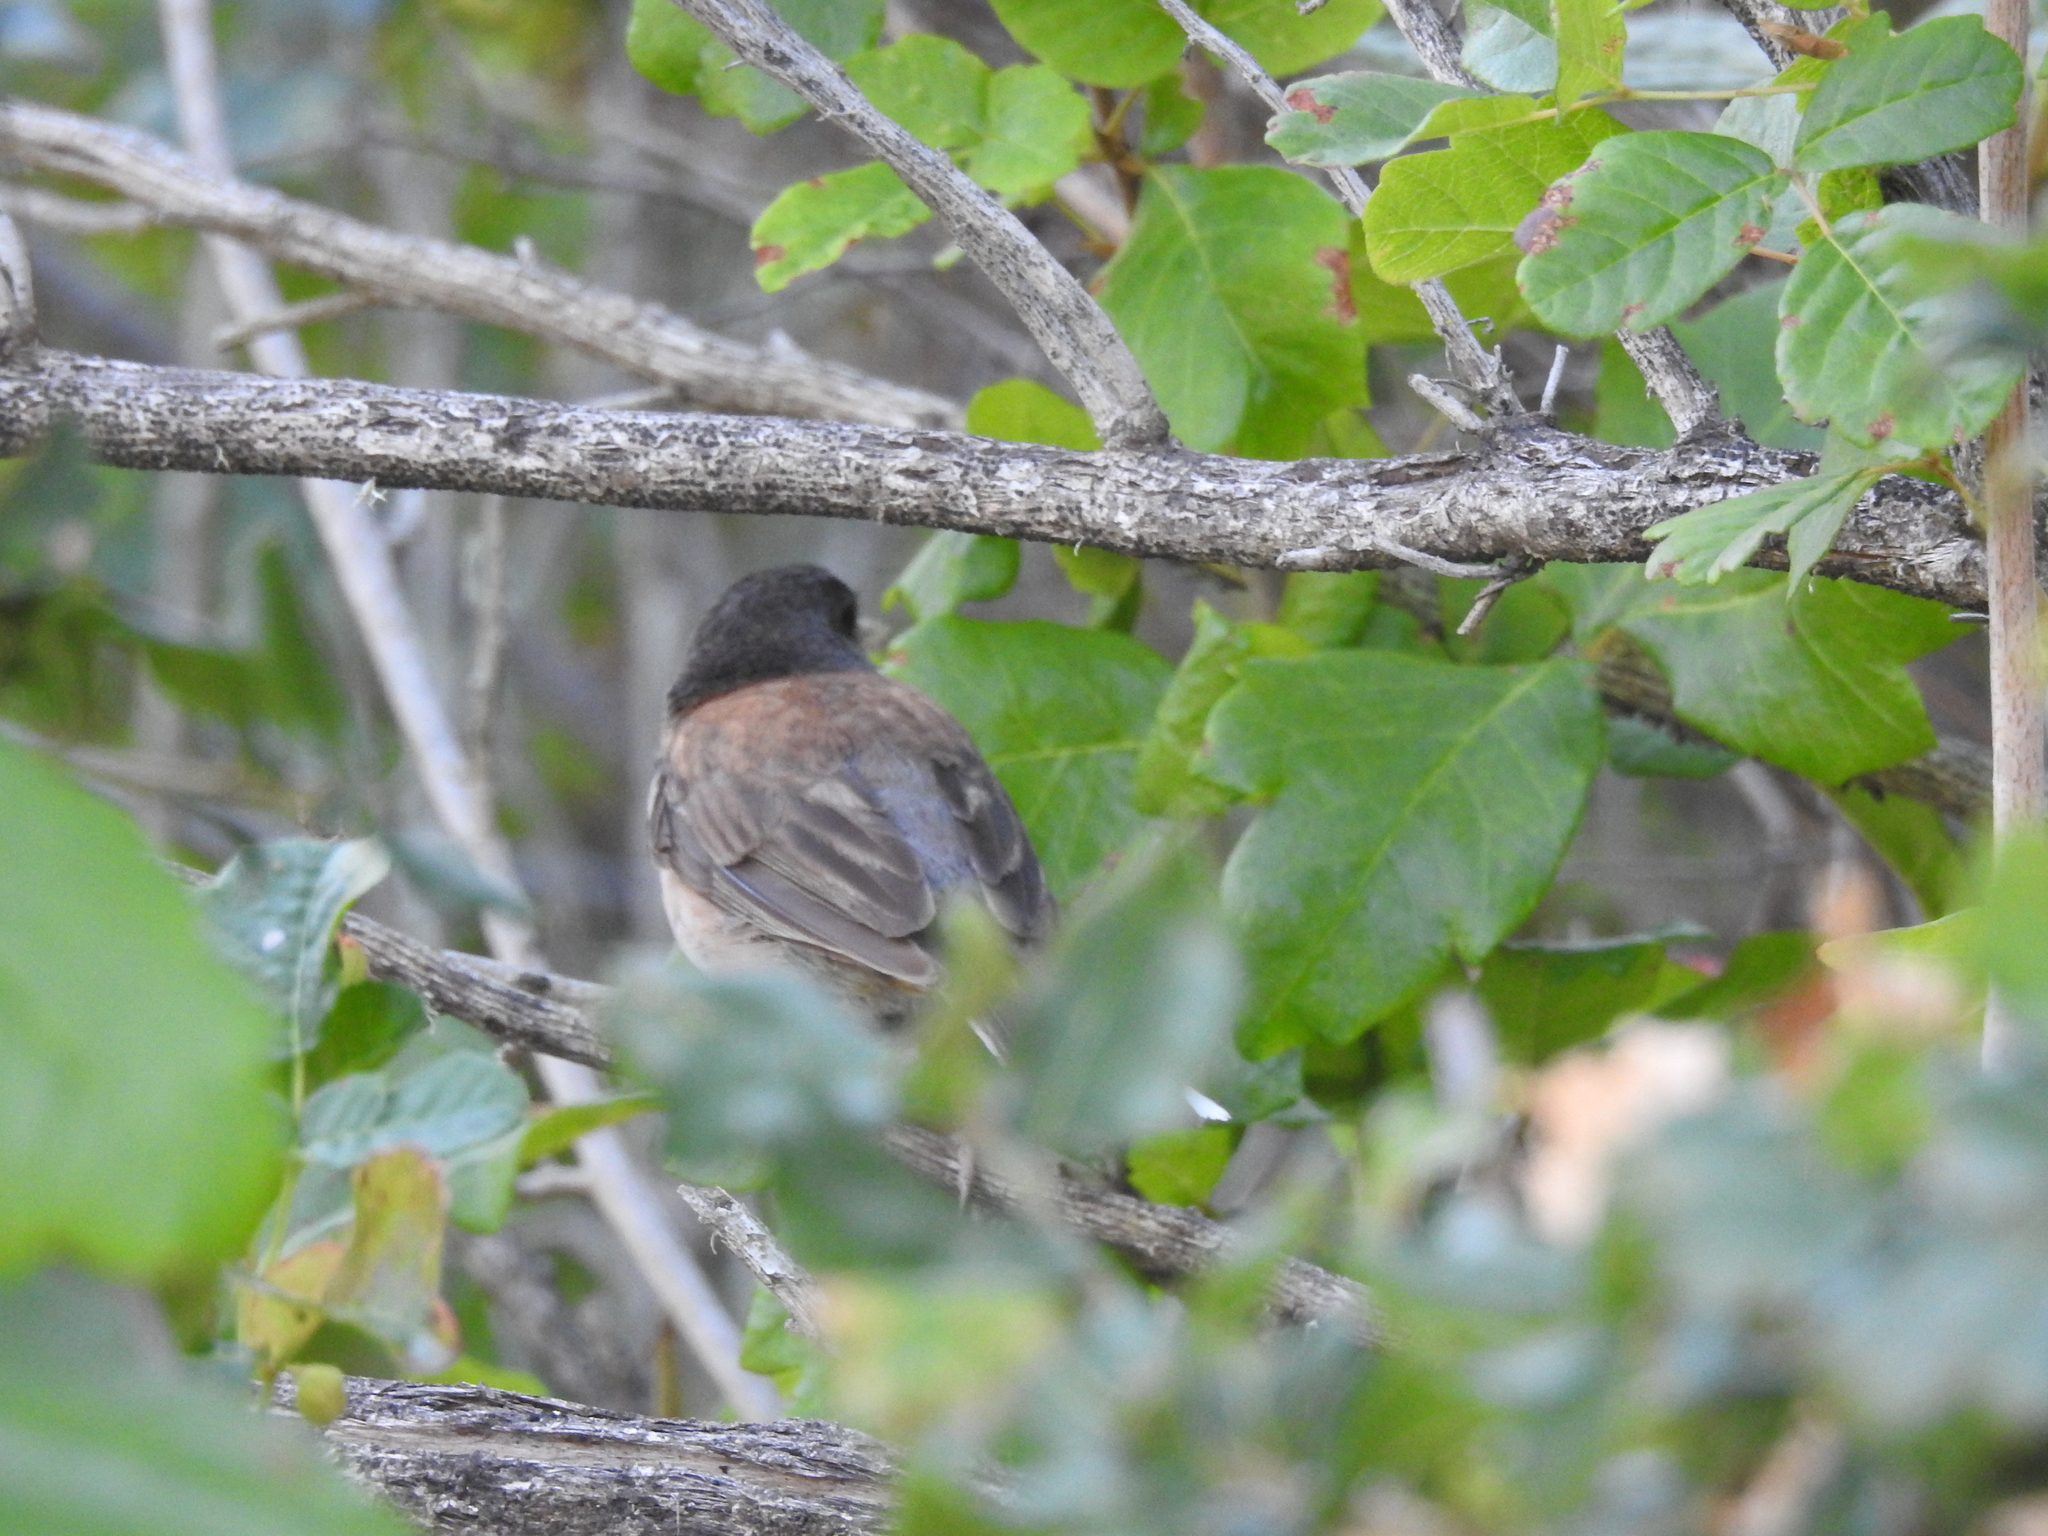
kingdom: Animalia
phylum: Chordata
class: Aves
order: Passeriformes
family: Passerellidae
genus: Junco
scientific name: Junco hyemalis
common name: Dark-eyed junco
